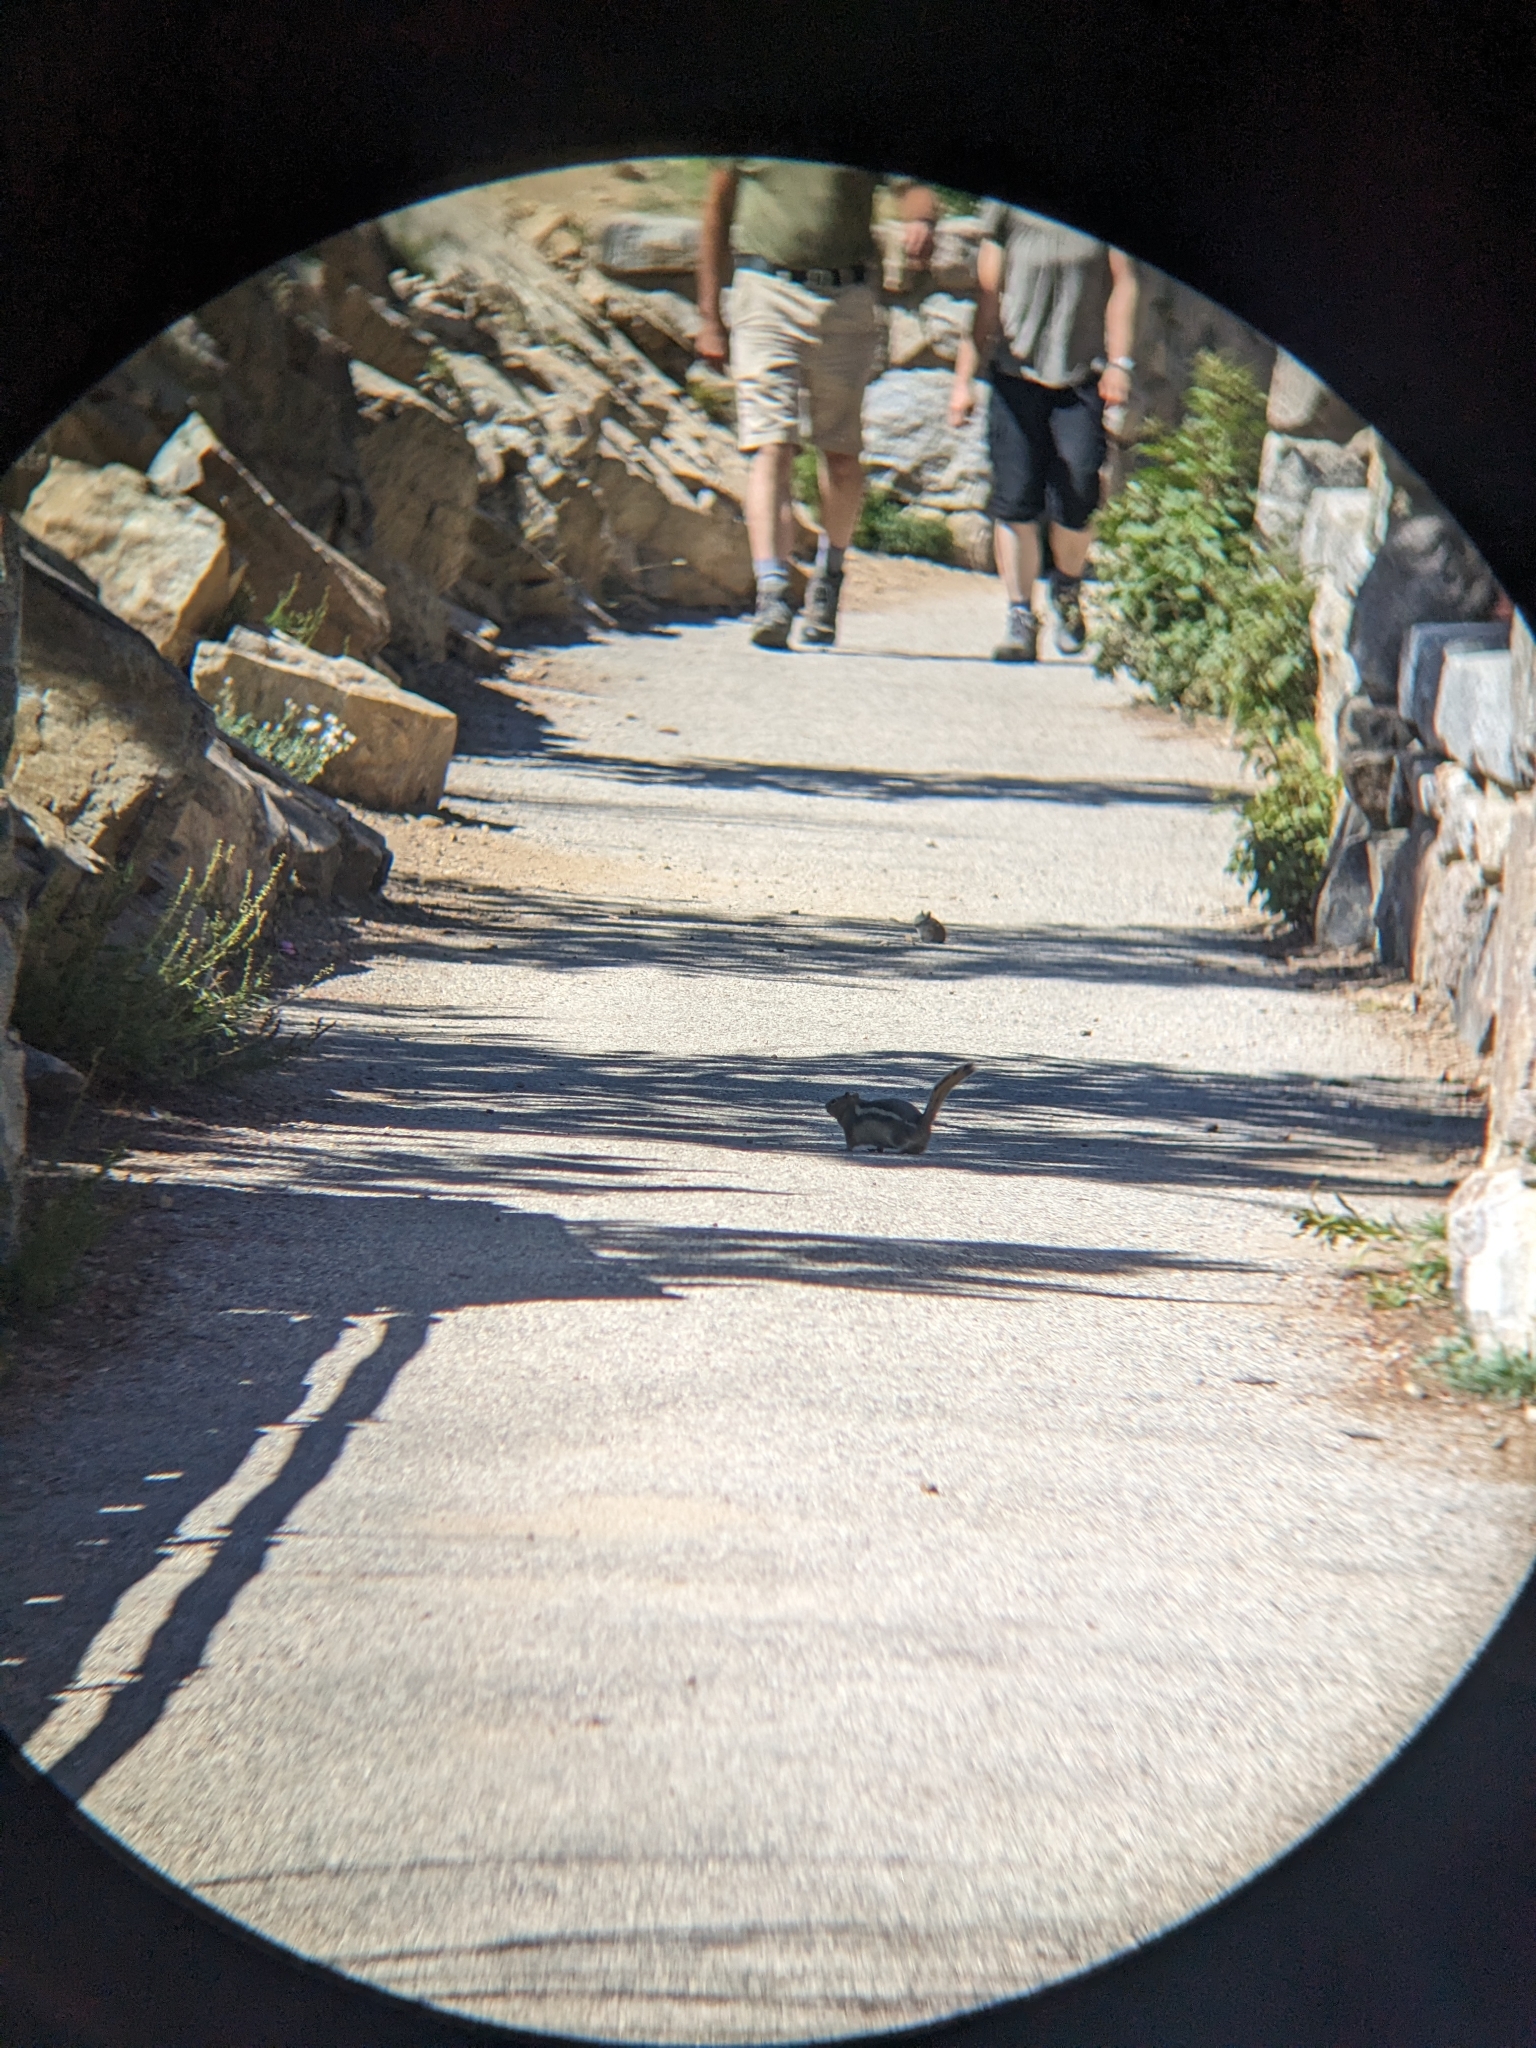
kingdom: Animalia
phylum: Chordata
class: Mammalia
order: Rodentia
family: Sciuridae
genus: Callospermophilus
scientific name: Callospermophilus lateralis
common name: Golden-mantled ground squirrel
